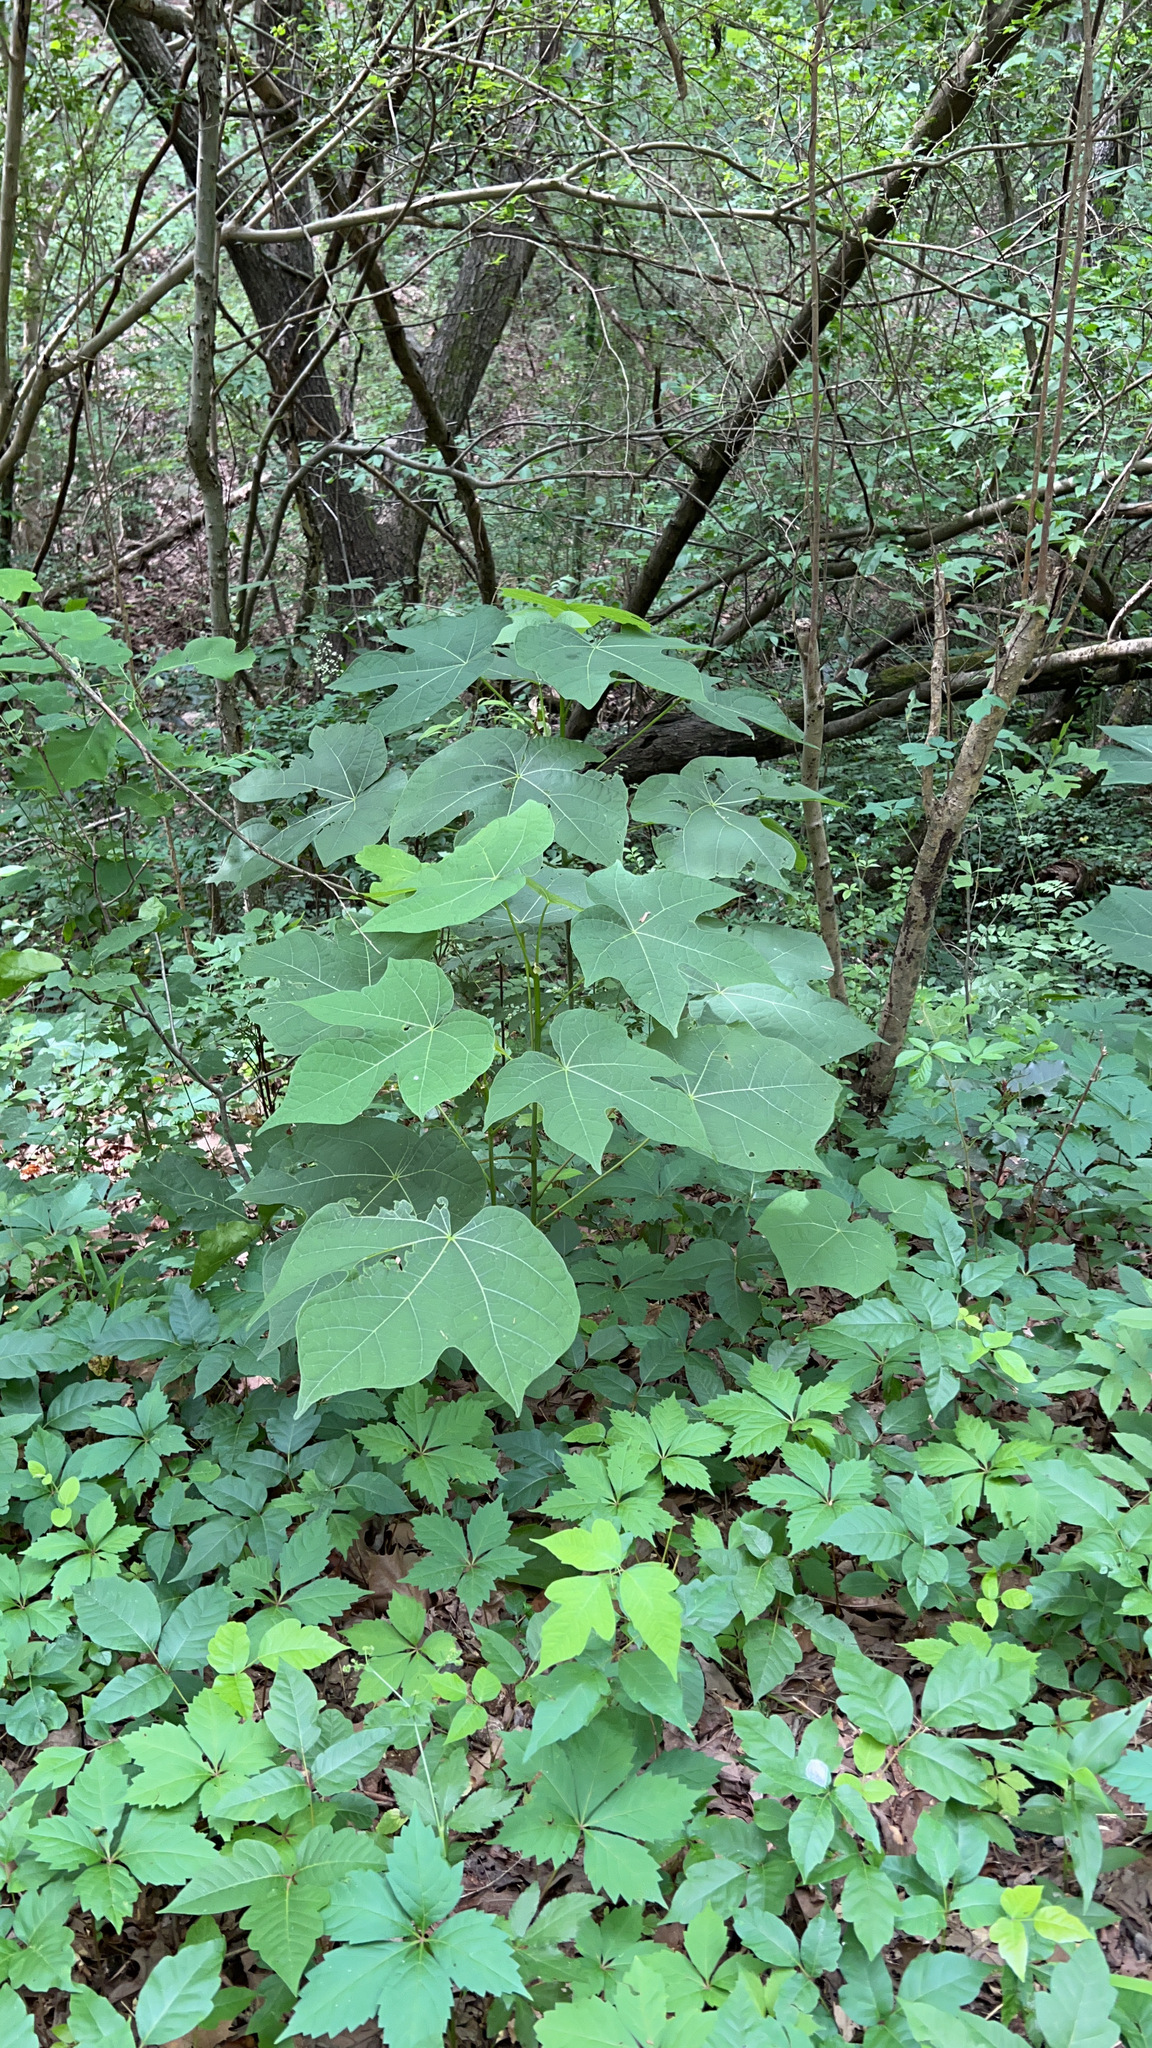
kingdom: Plantae
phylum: Tracheophyta
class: Magnoliopsida
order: Malvales
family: Malvaceae
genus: Firmiana
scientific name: Firmiana simplex
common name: Chinese parasoltree
